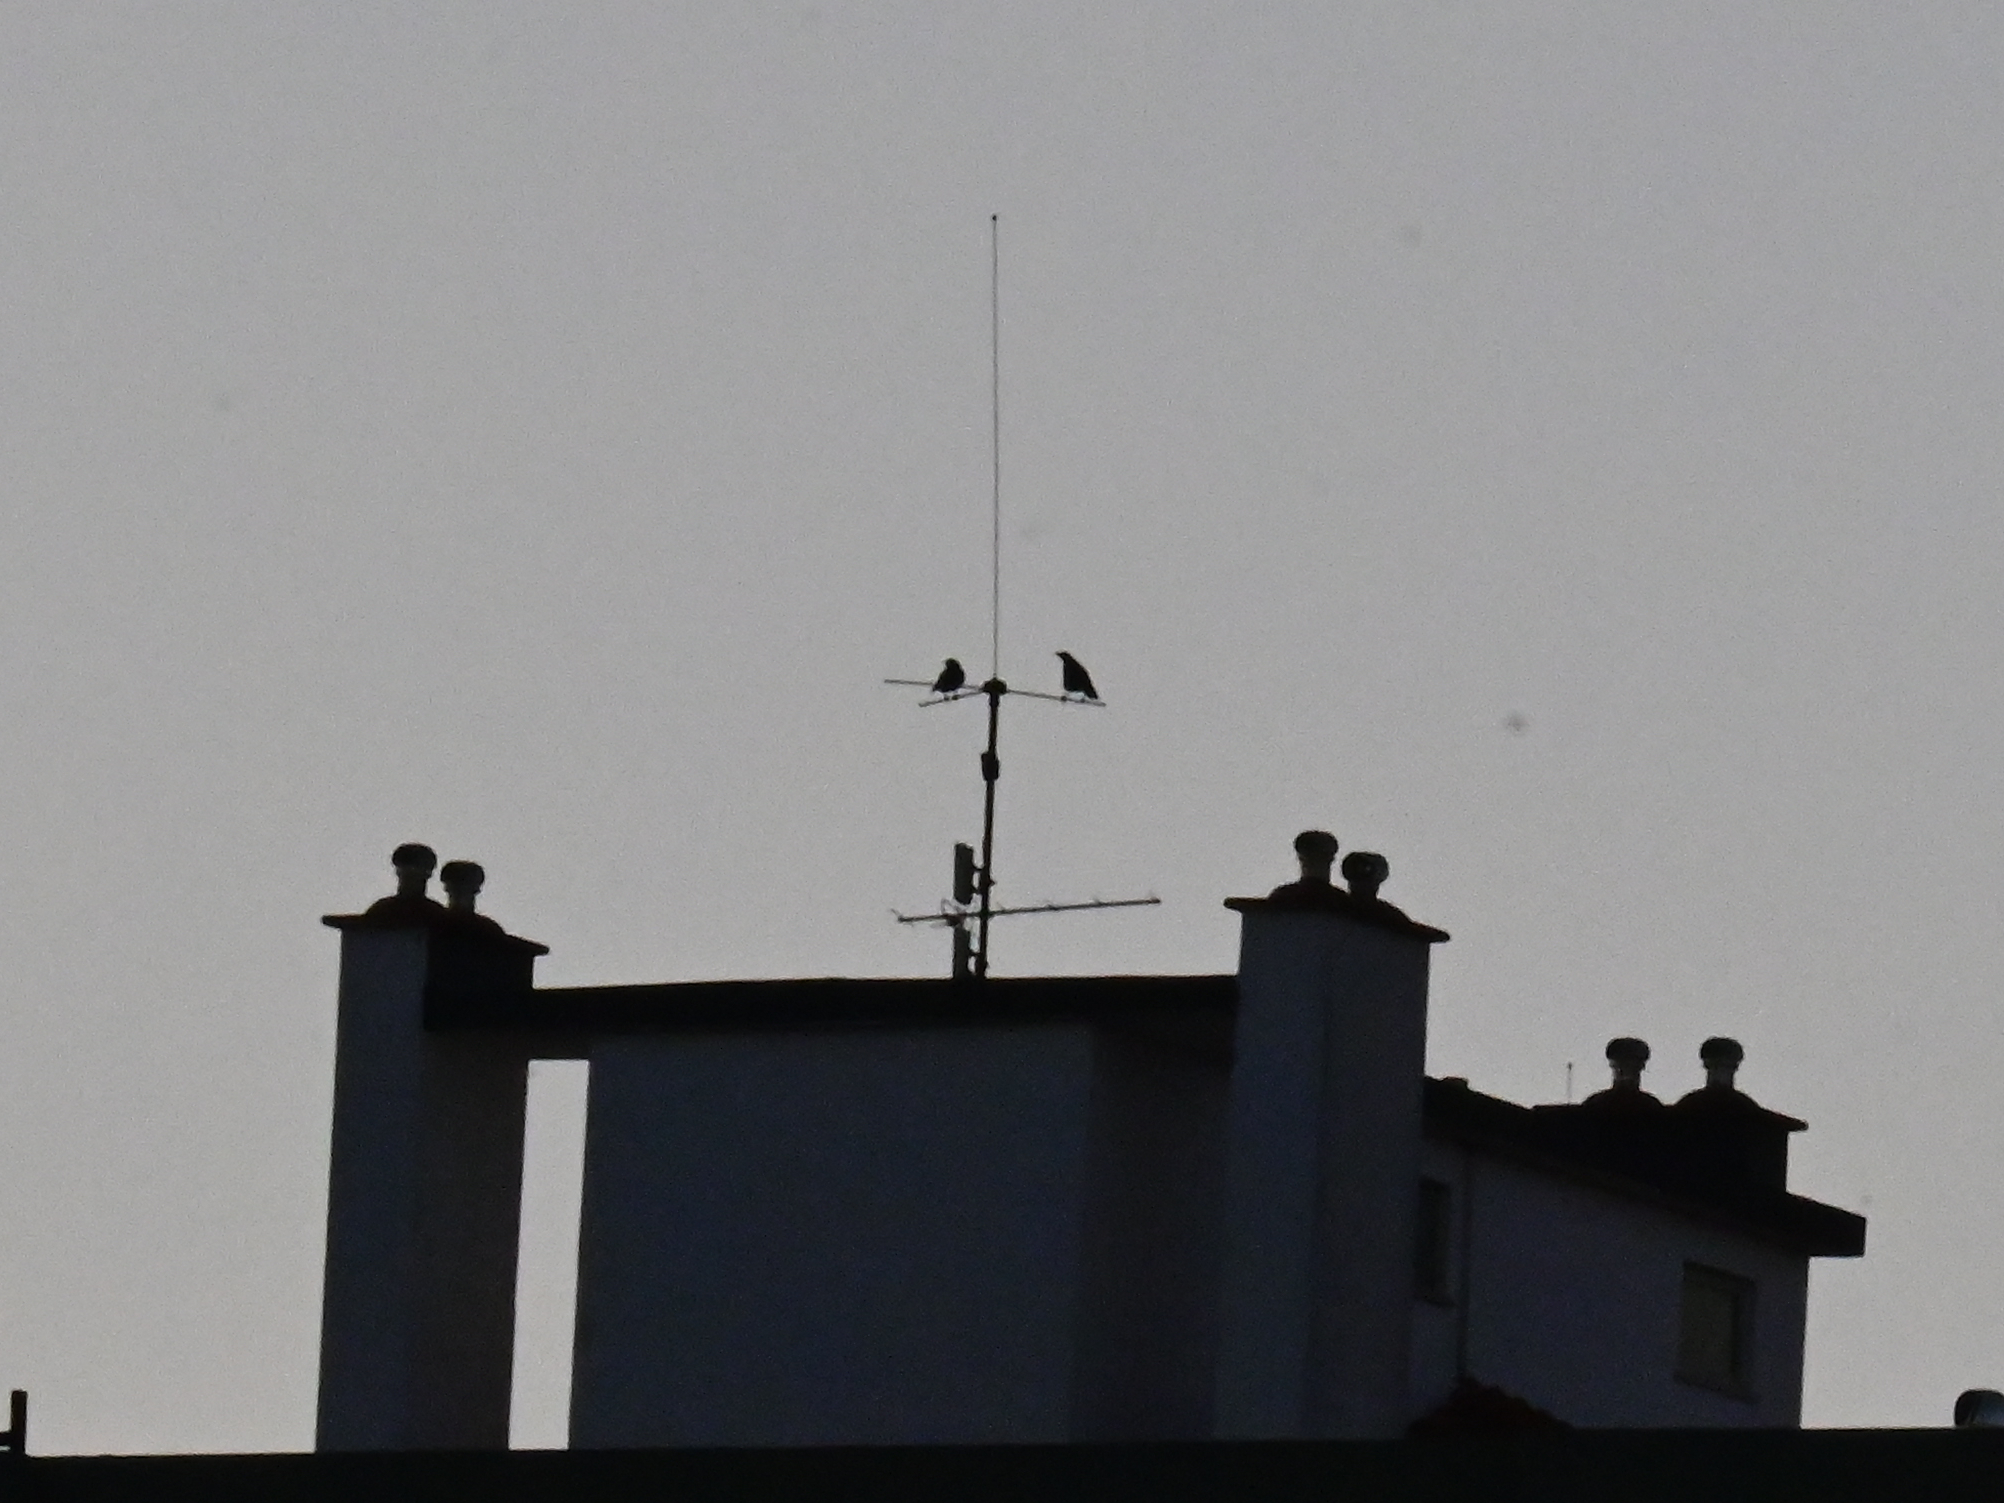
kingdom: Animalia
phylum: Chordata
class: Aves
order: Passeriformes
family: Corvidae
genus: Corvus
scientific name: Corvus corone
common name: Carrion crow
